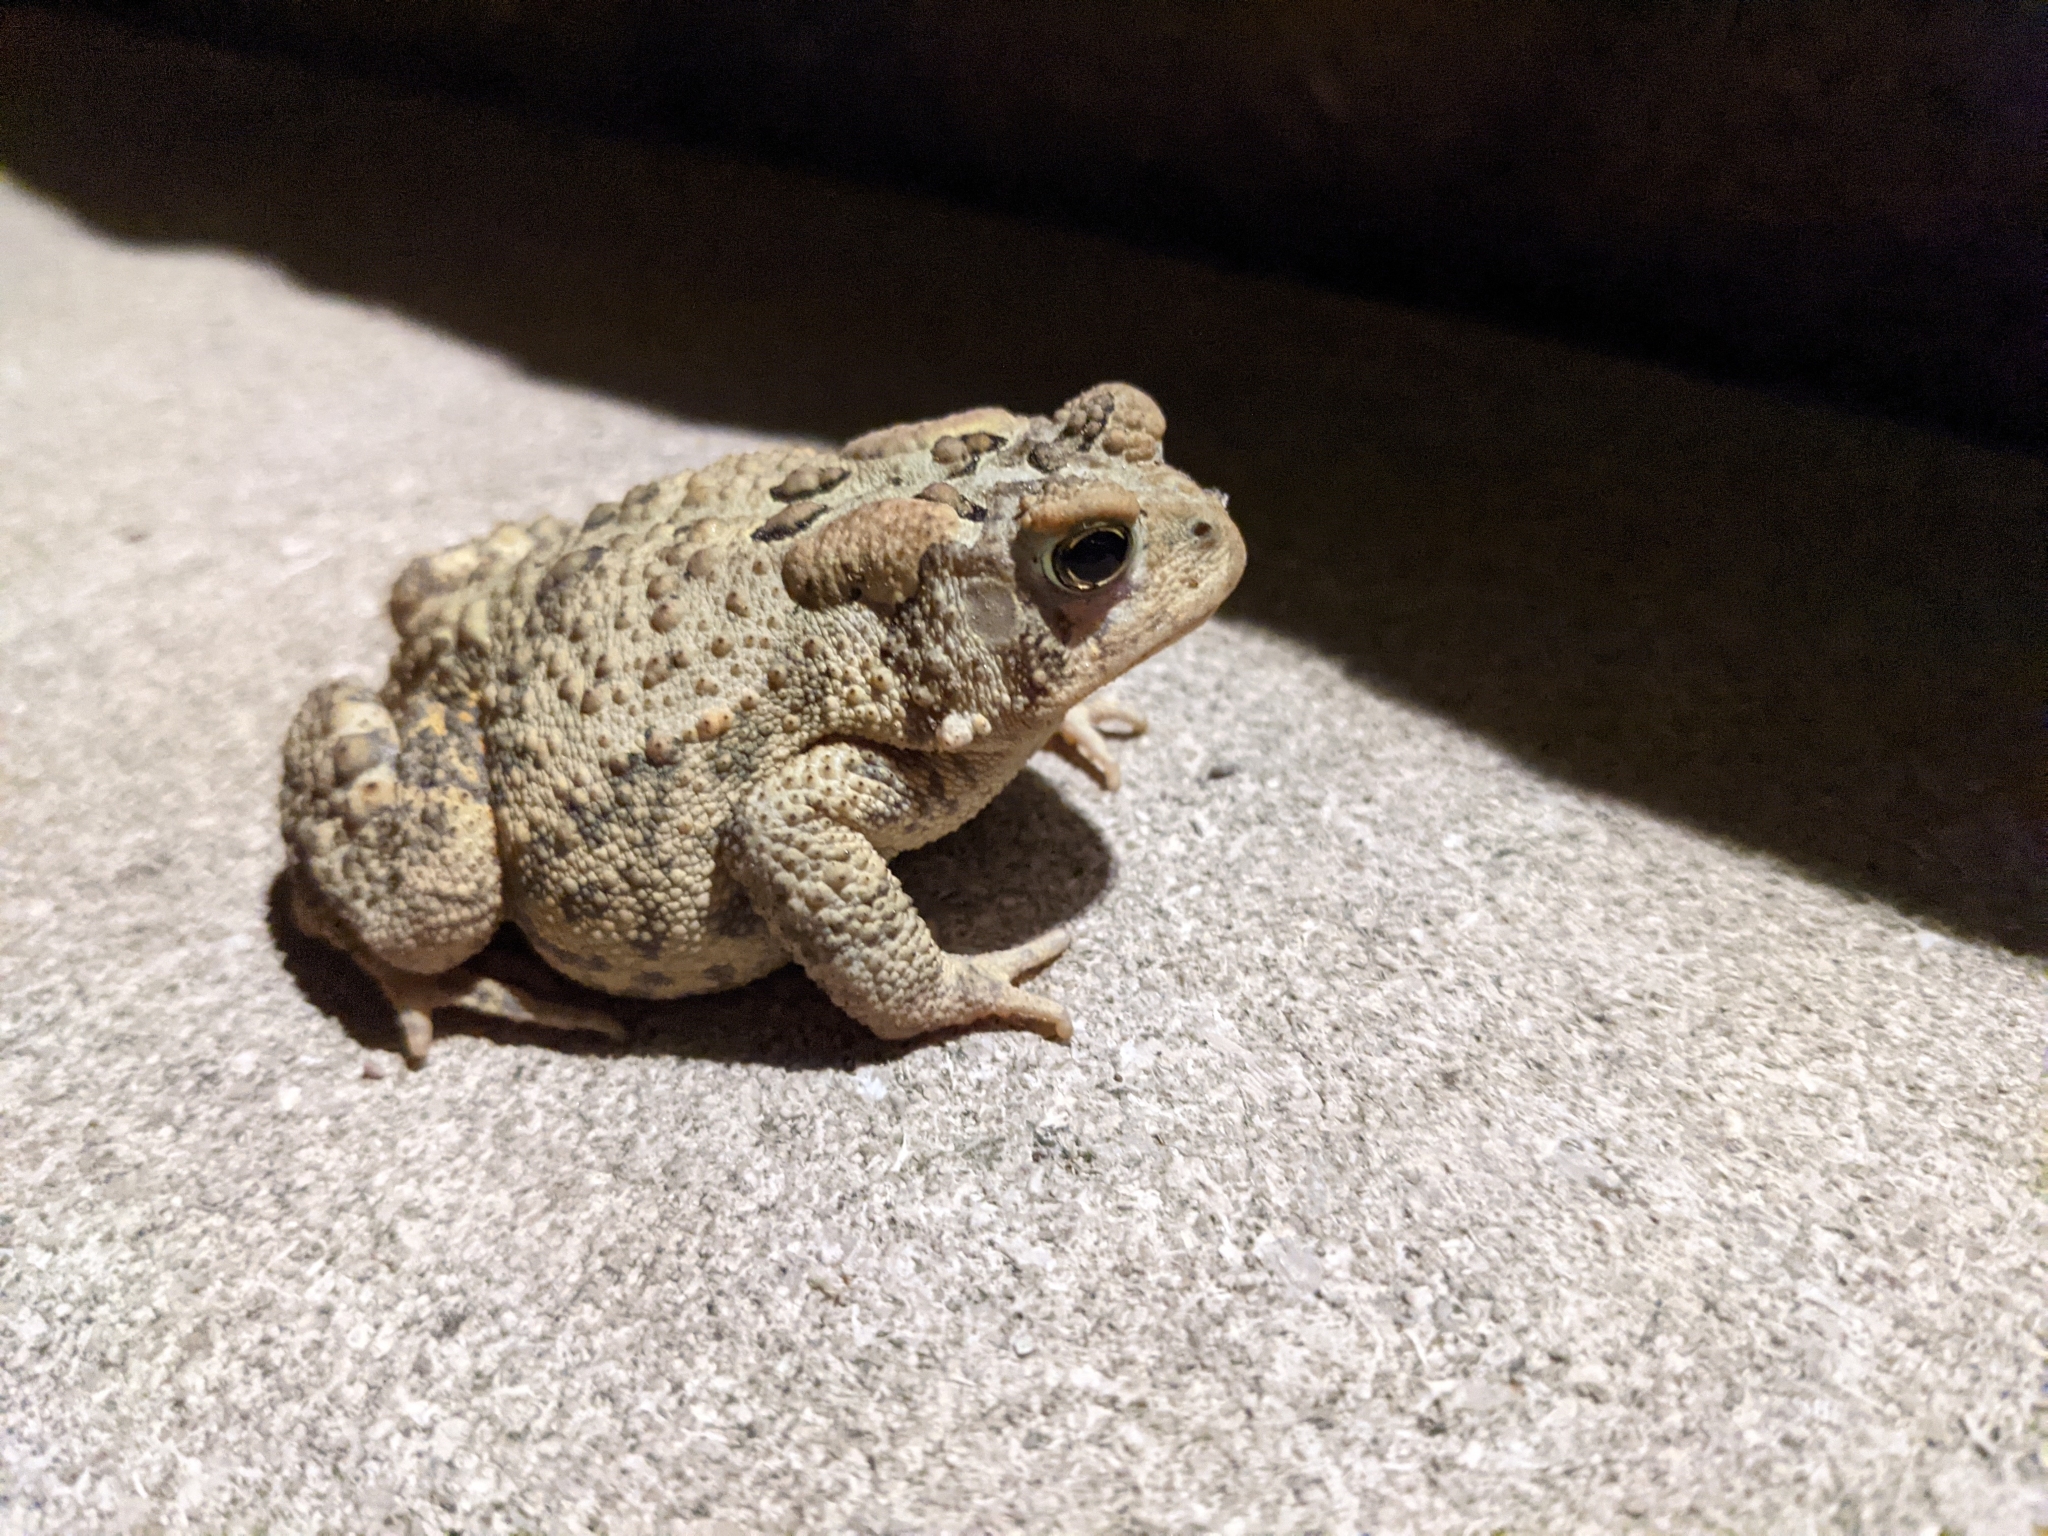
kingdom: Animalia
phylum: Chordata
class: Amphibia
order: Anura
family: Bufonidae
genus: Anaxyrus
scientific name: Anaxyrus americanus
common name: American toad
